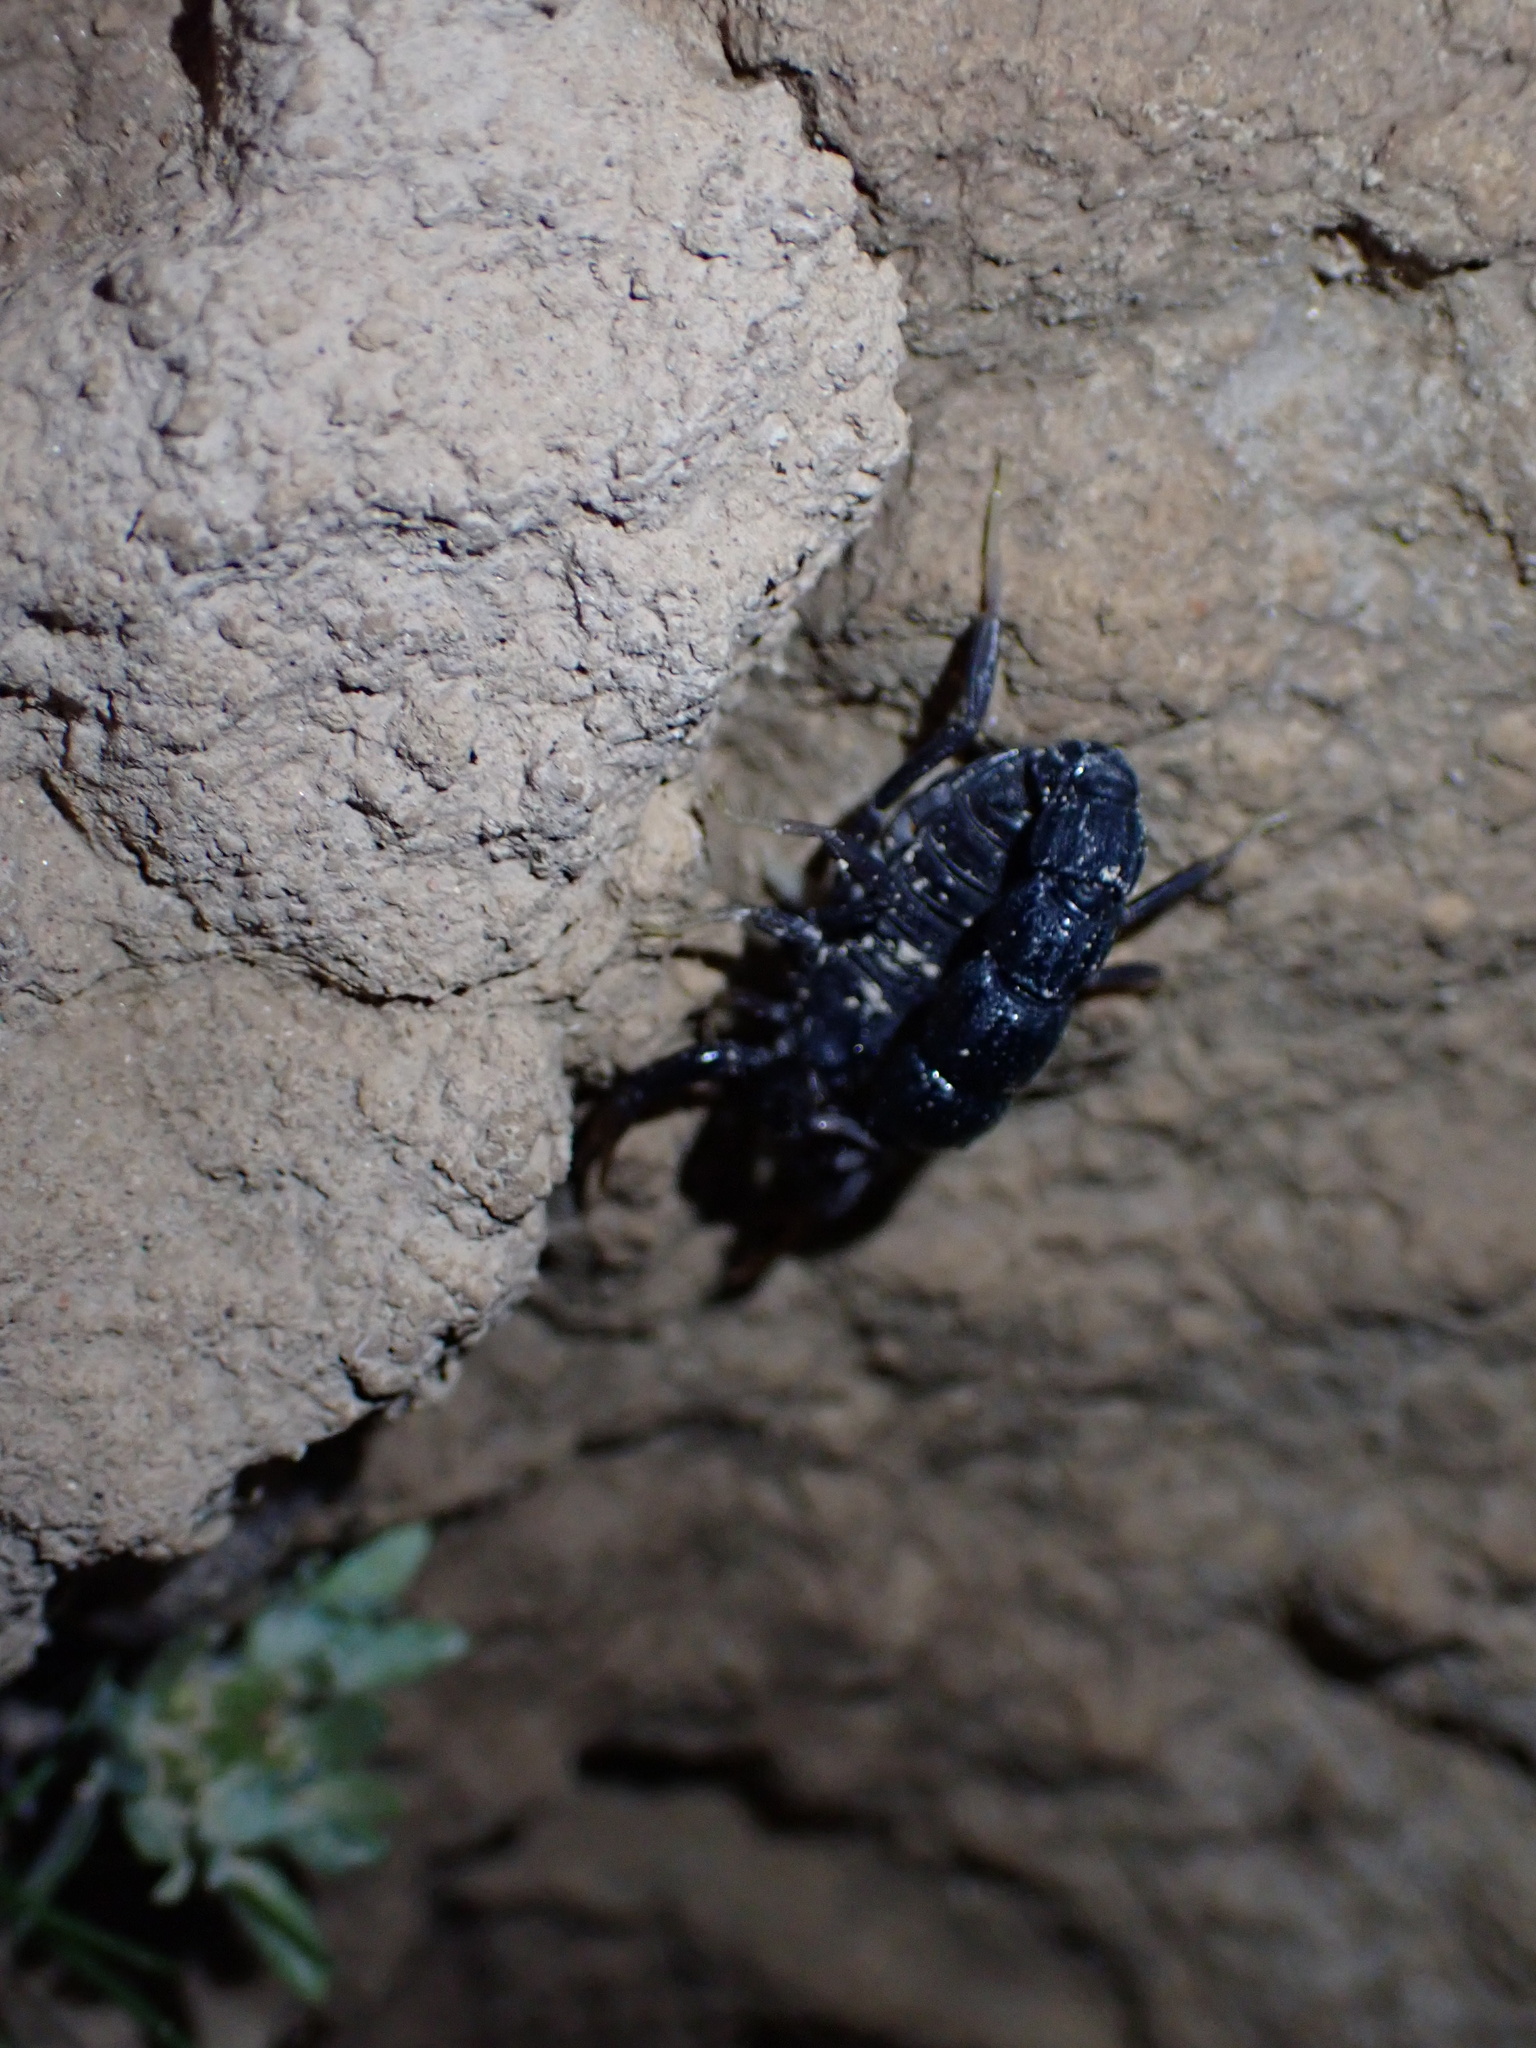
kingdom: Animalia
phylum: Arthropoda
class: Arachnida
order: Scorpiones
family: Buthidae
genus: Orthochirus
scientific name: Orthochirus mesopotamicus
